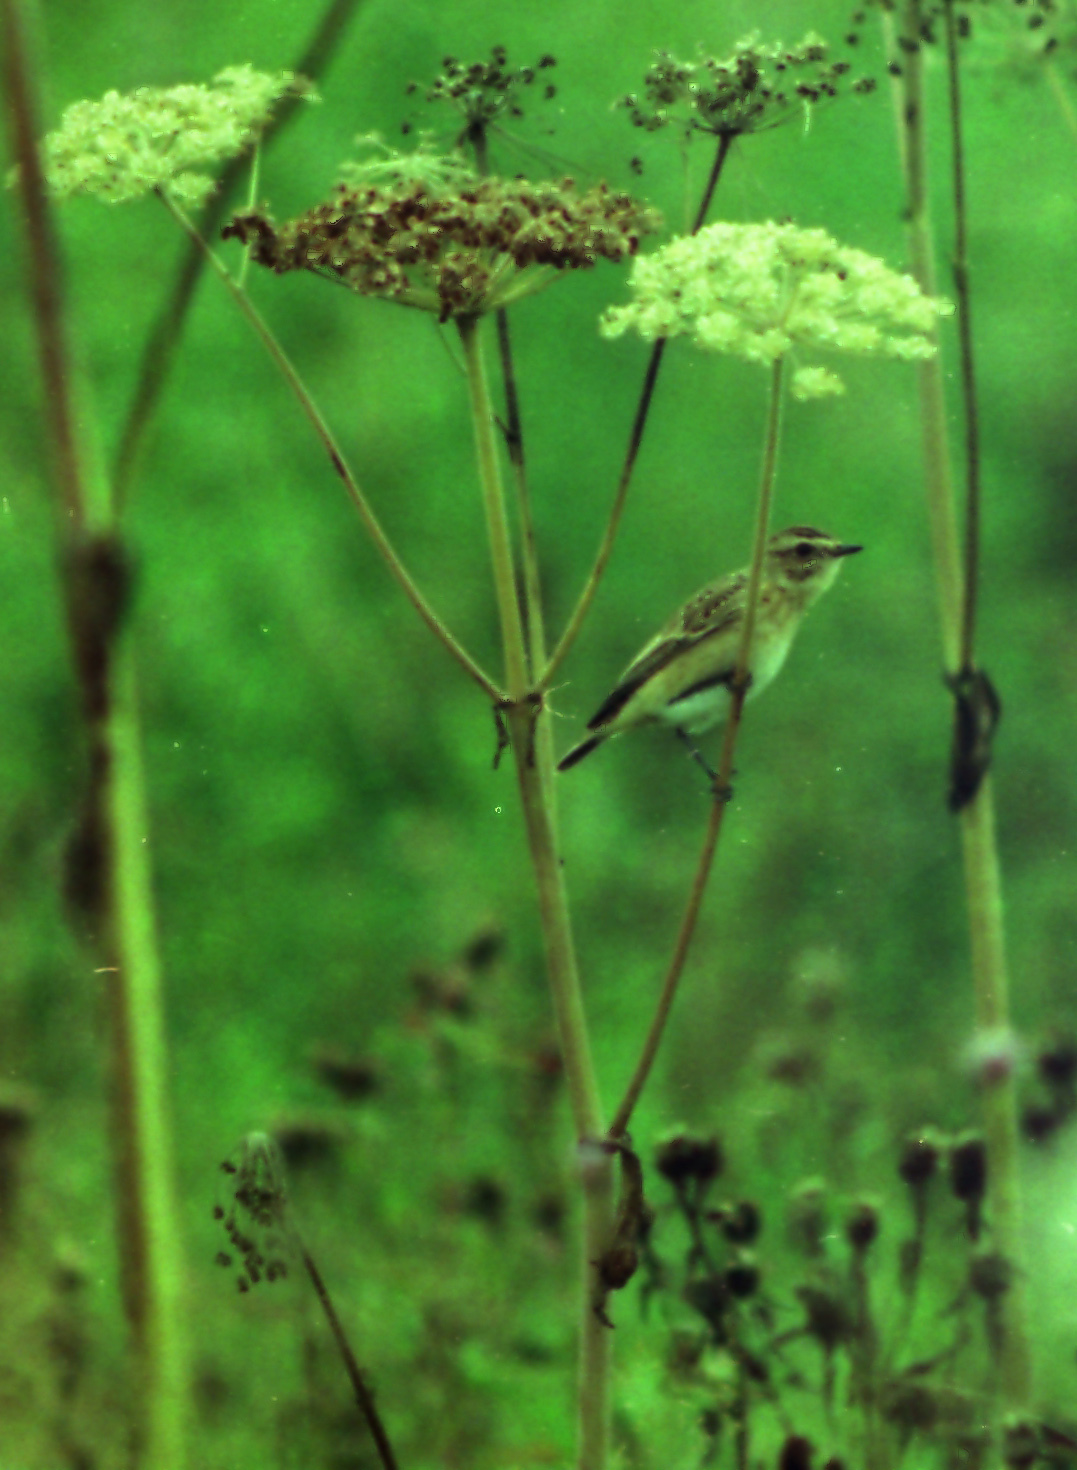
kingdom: Animalia
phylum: Chordata
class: Aves
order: Passeriformes
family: Muscicapidae
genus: Saxicola
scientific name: Saxicola rubetra
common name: Whinchat
